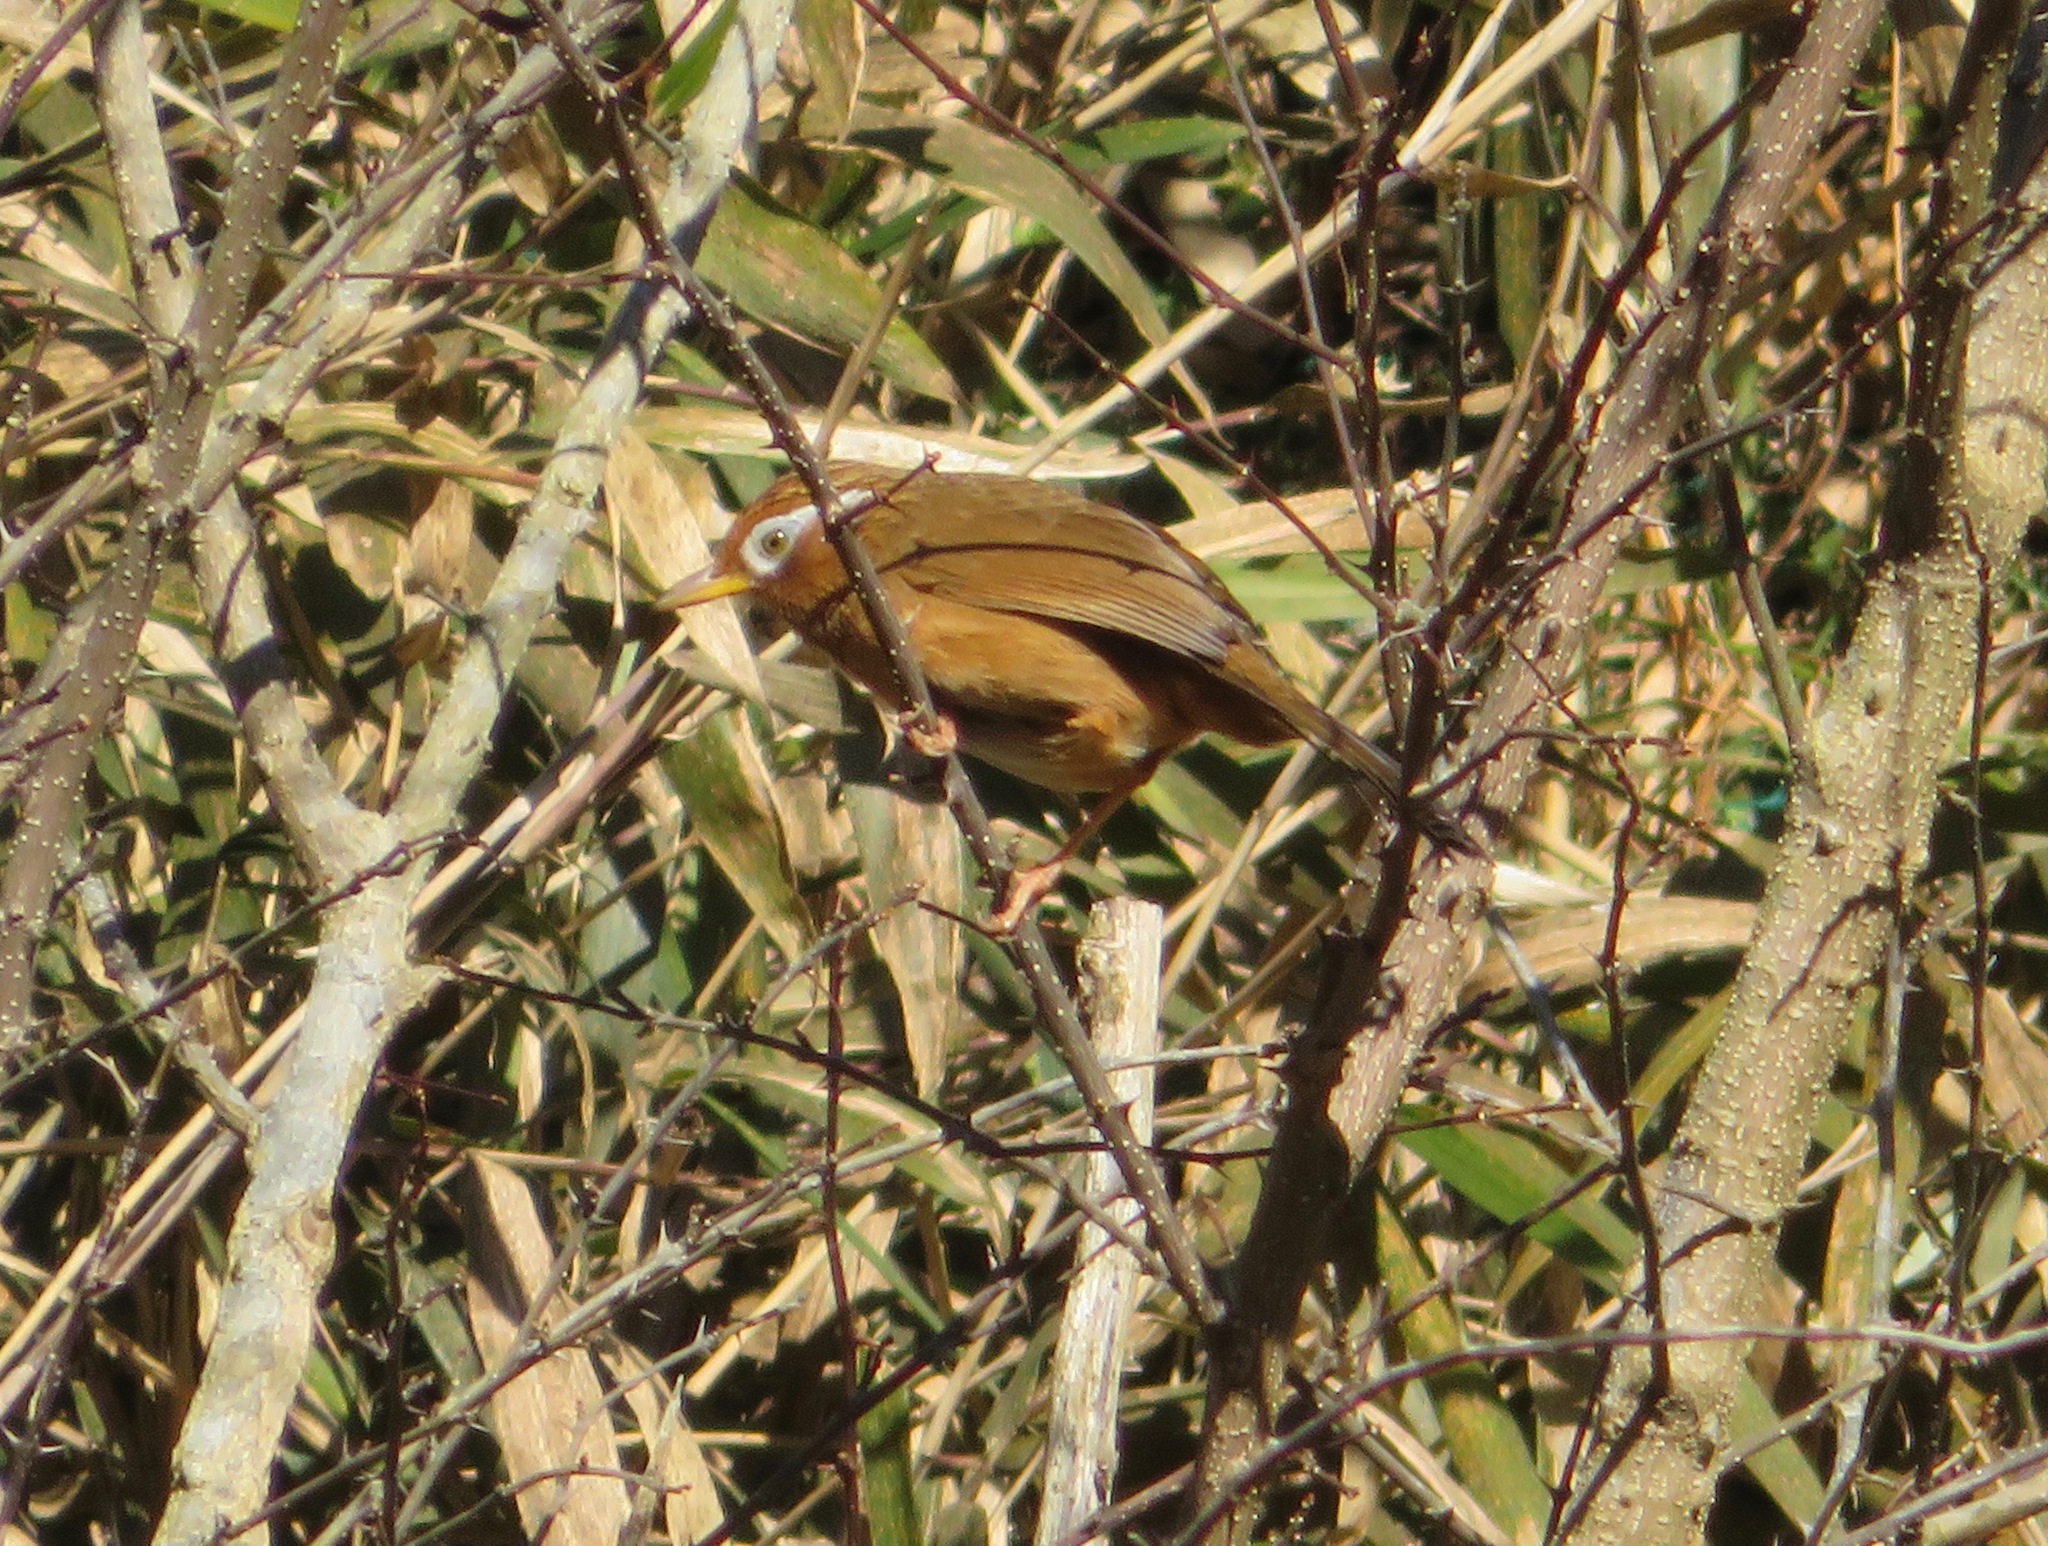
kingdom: Animalia
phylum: Chordata
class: Aves
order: Passeriformes
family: Leiothrichidae
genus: Garrulax
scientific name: Garrulax canorus
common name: Chinese hwamei
